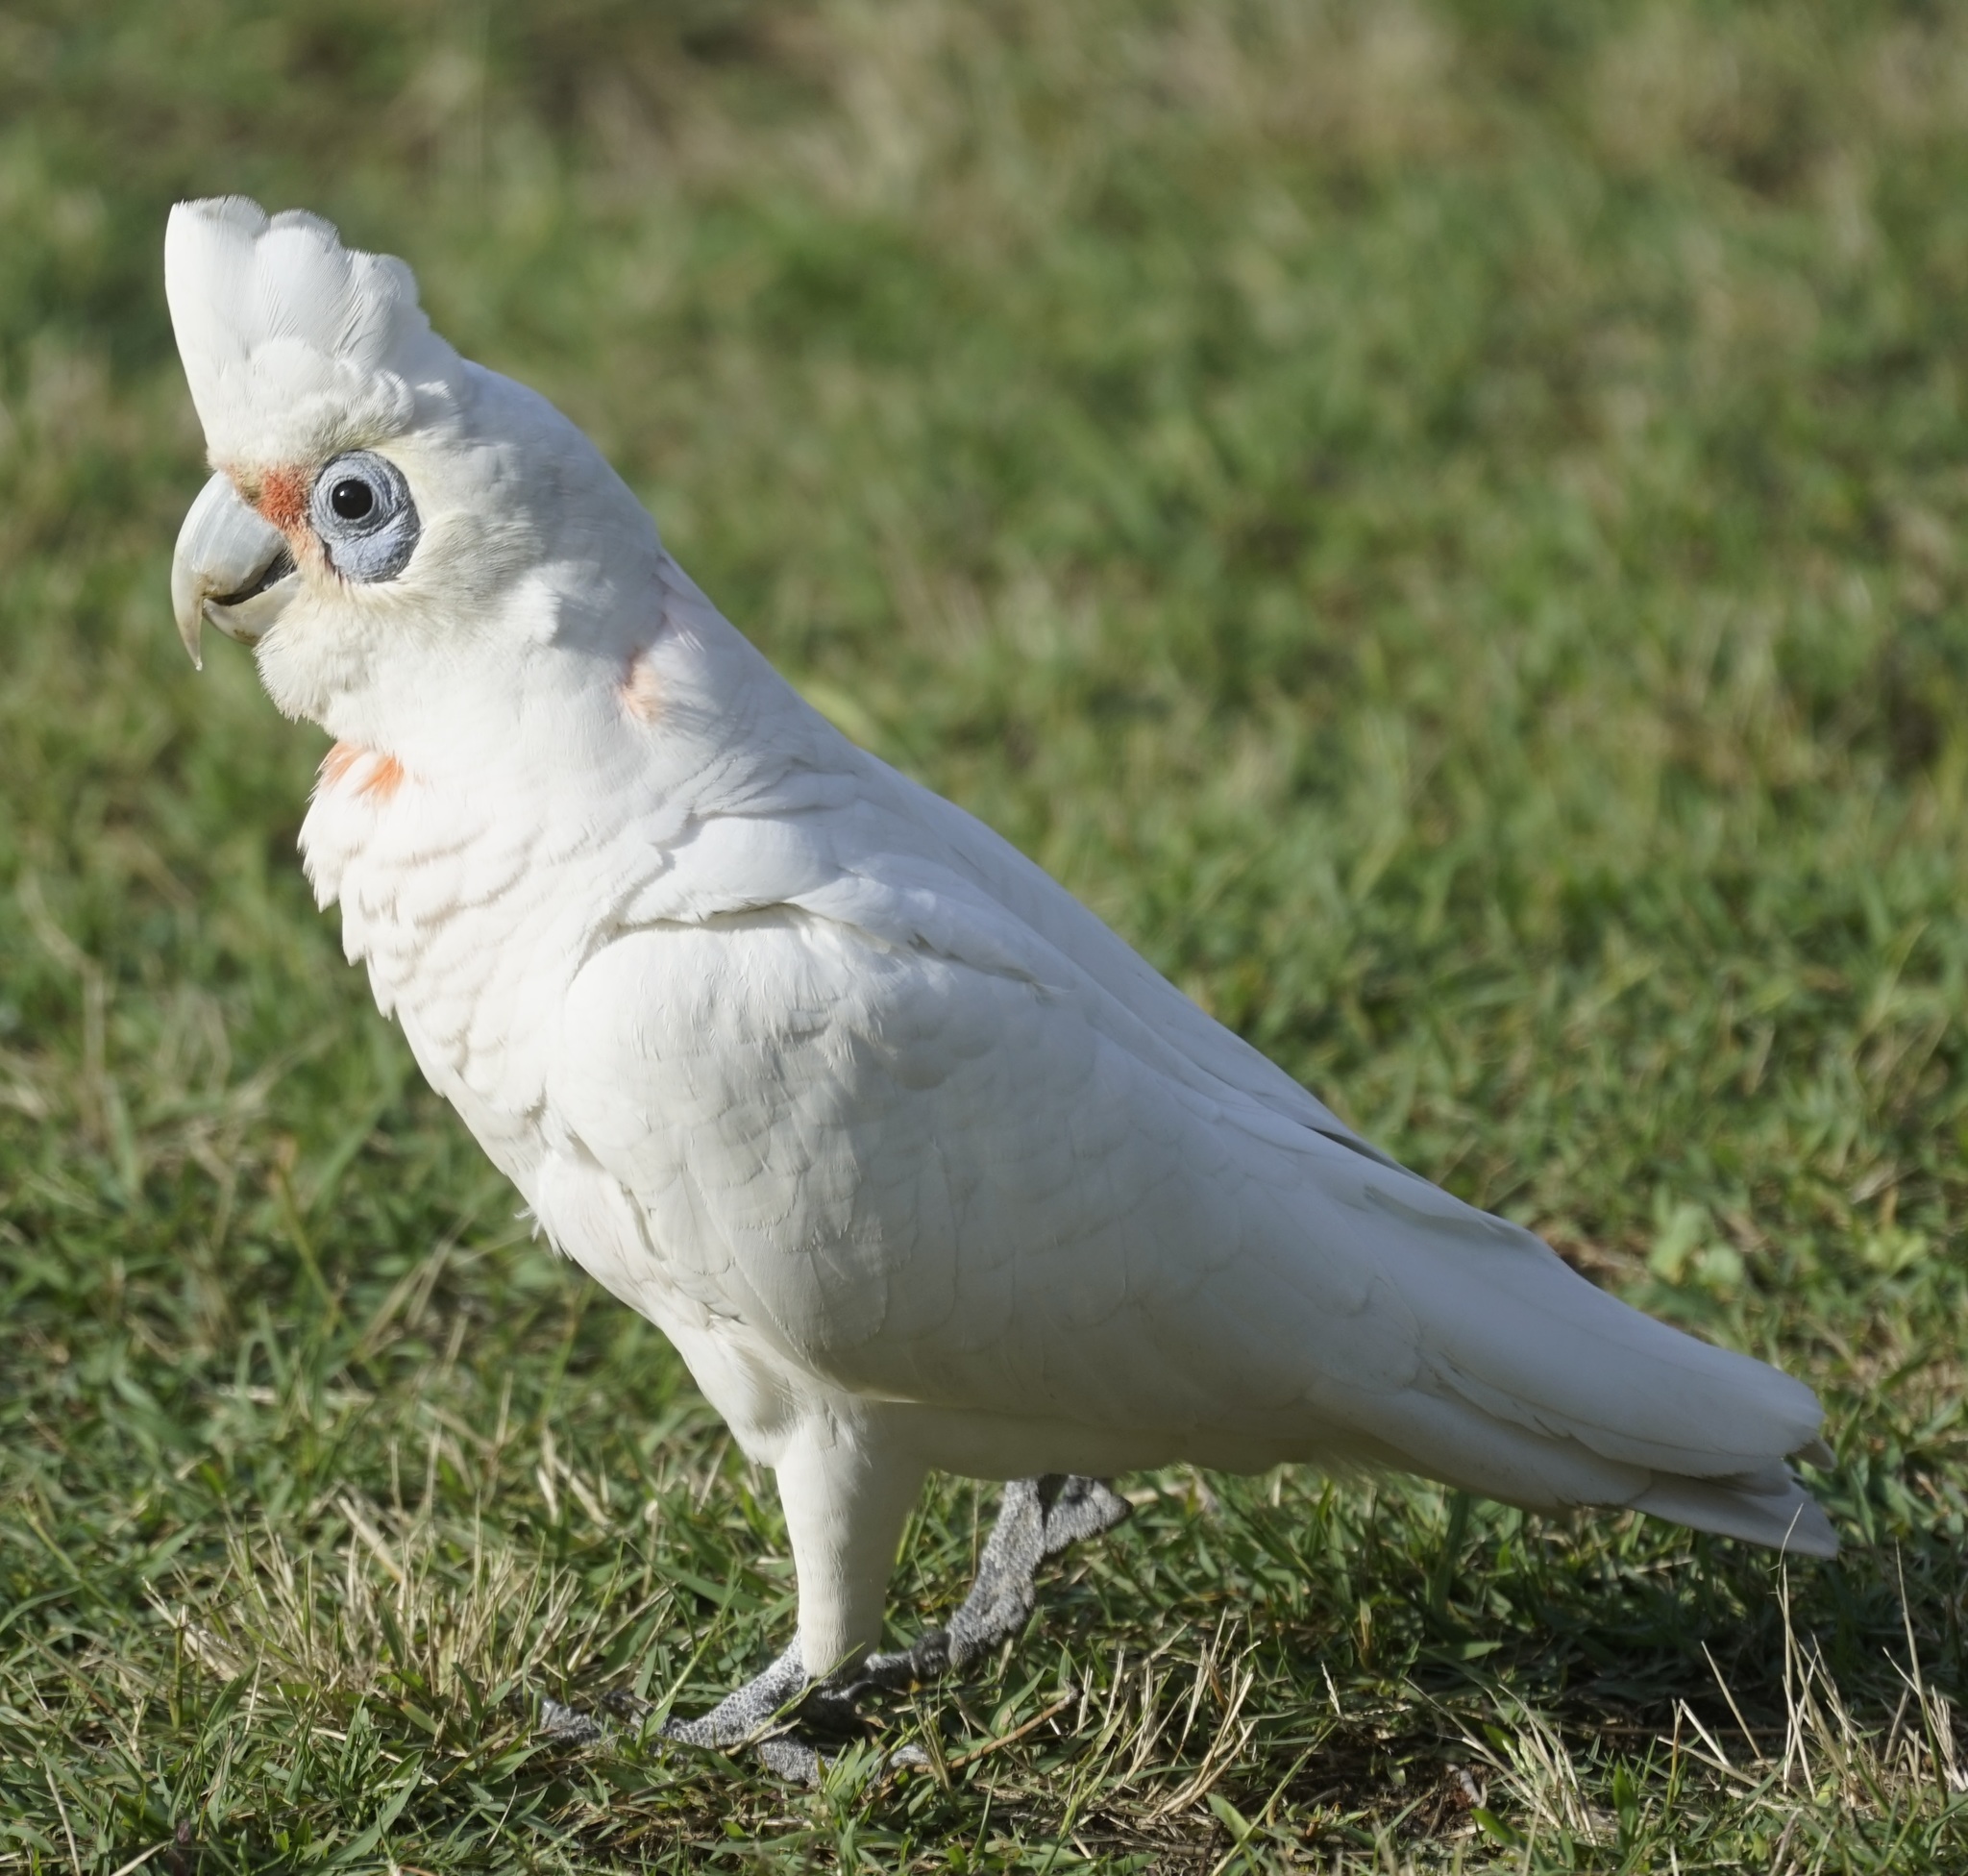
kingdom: Animalia
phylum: Chordata
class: Aves
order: Psittaciformes
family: Psittacidae
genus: Cacatua
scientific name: Cacatua sanguinea
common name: Little corella
